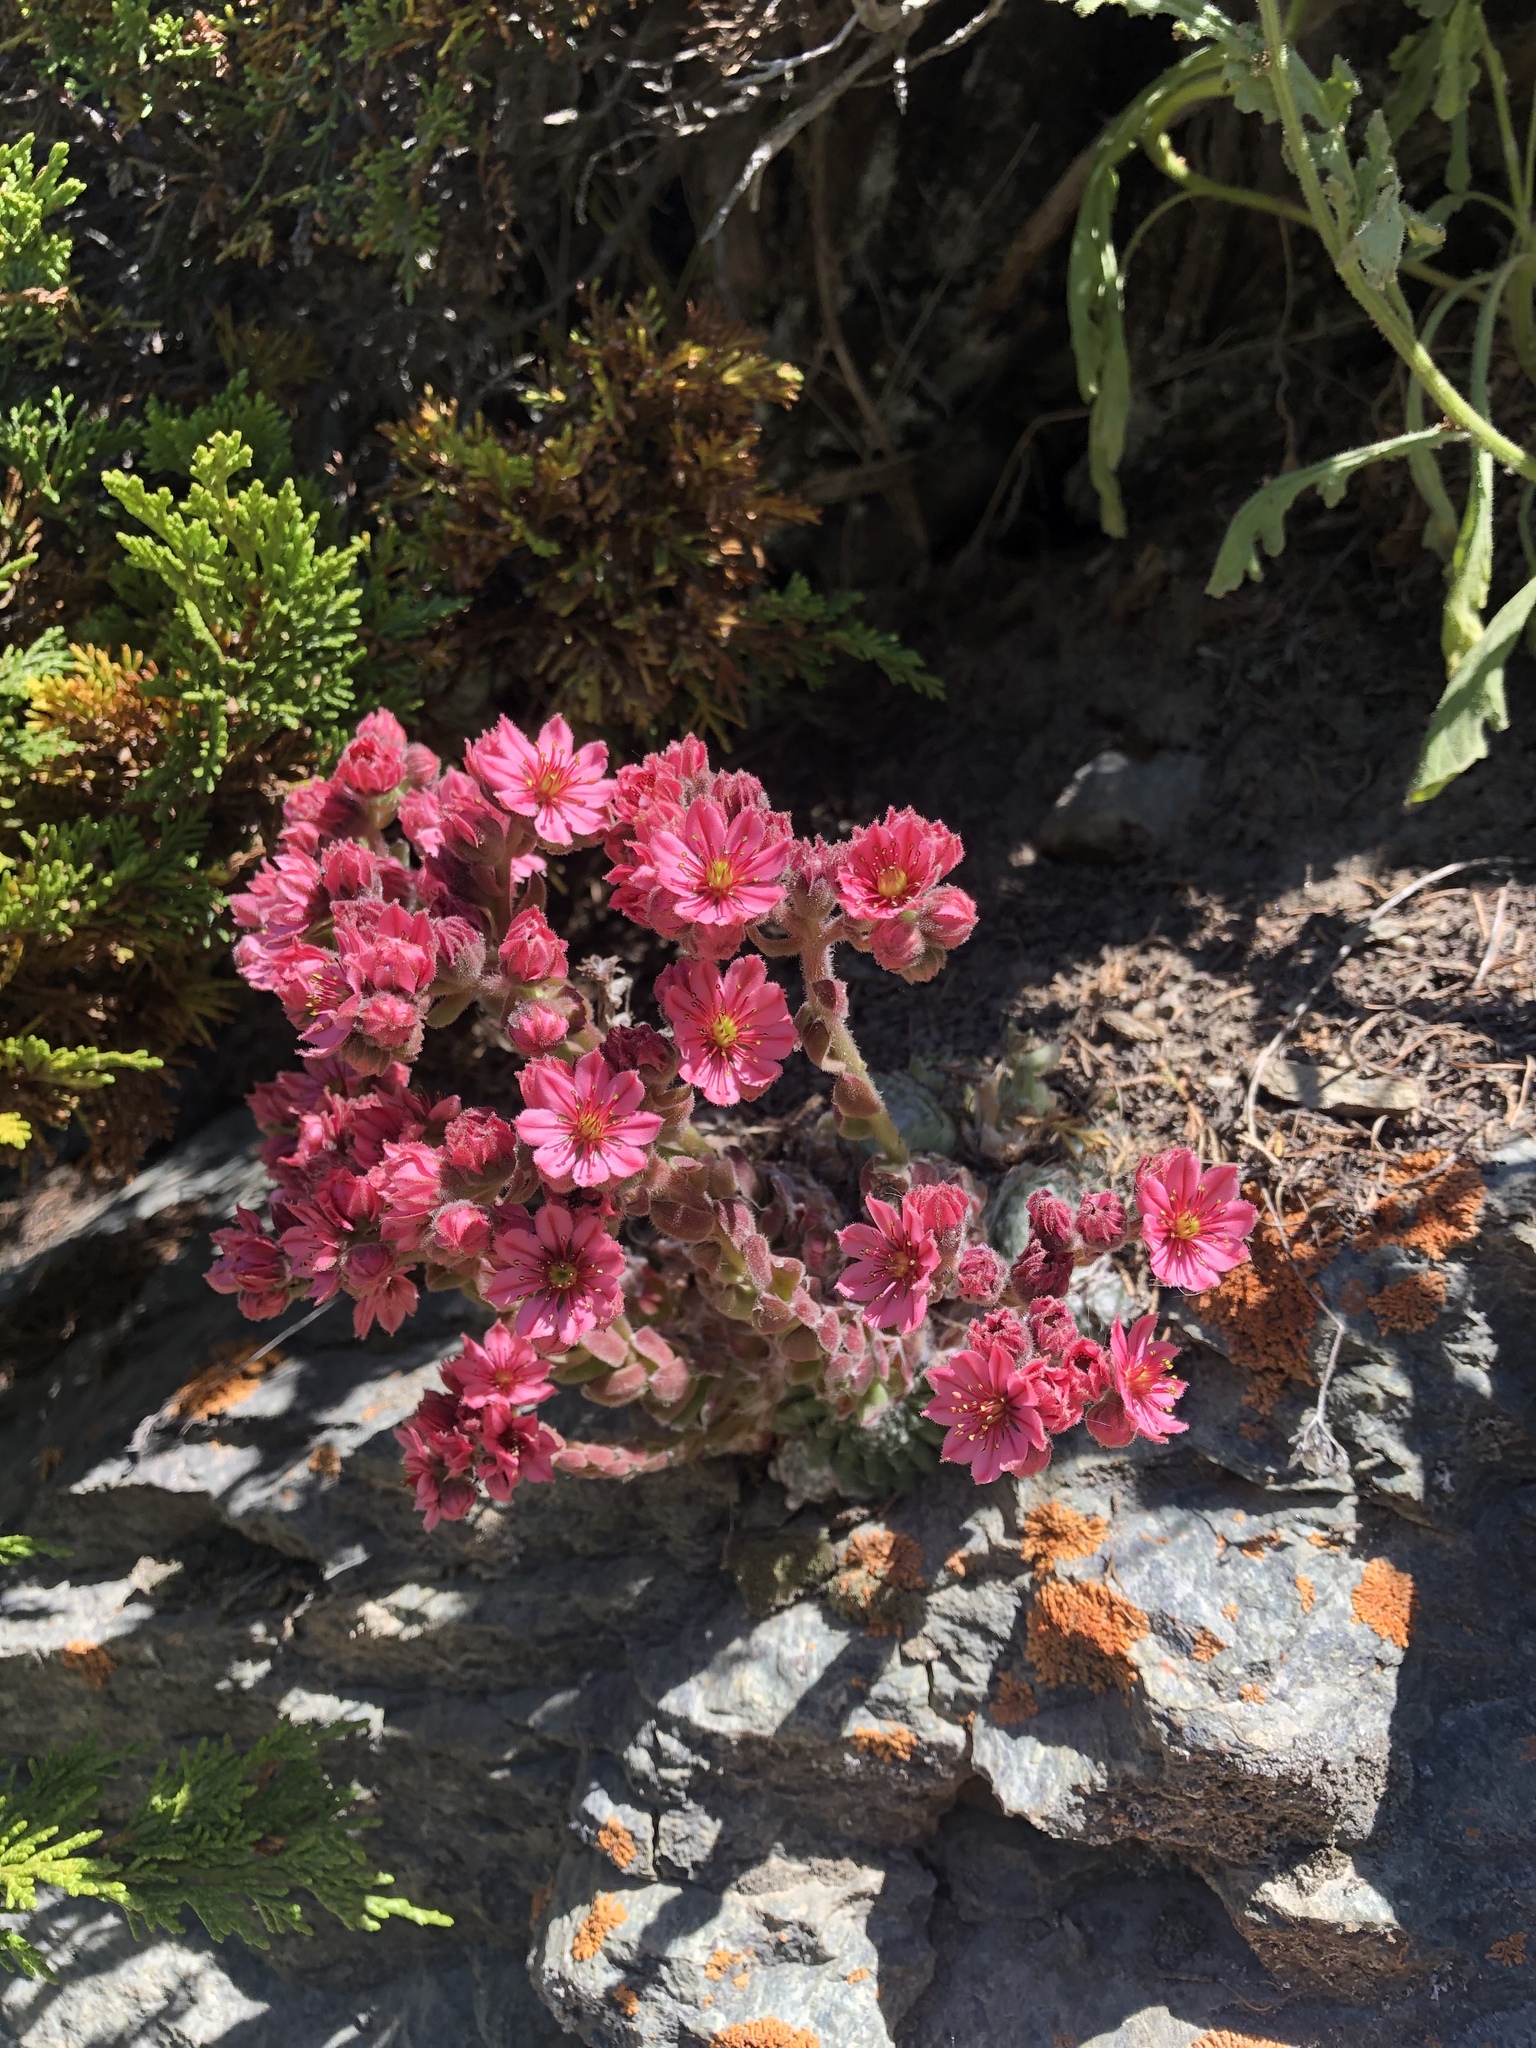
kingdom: Plantae
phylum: Tracheophyta
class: Magnoliopsida
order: Saxifragales
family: Crassulaceae
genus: Sempervivum
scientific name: Sempervivum arachnoideum
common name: Cobweb house-leek
